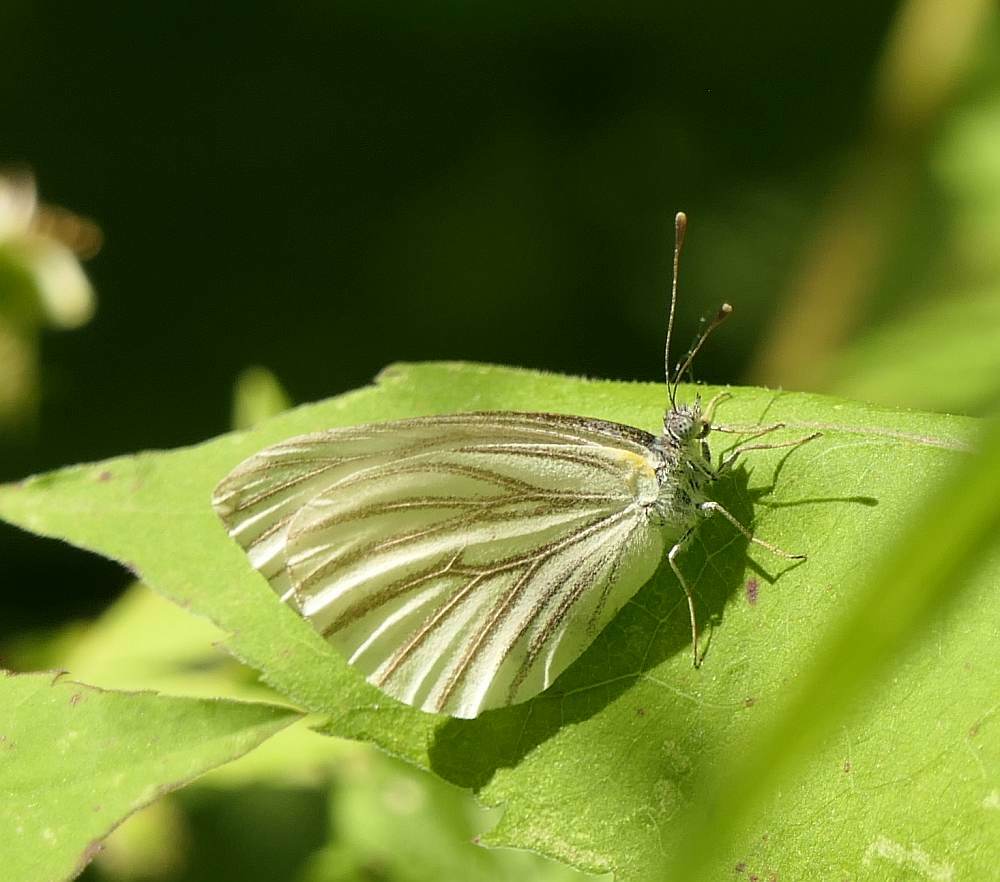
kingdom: Animalia
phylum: Arthropoda
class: Insecta
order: Lepidoptera
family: Pieridae
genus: Pieris
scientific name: Pieris oleracea
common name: Mustard white
